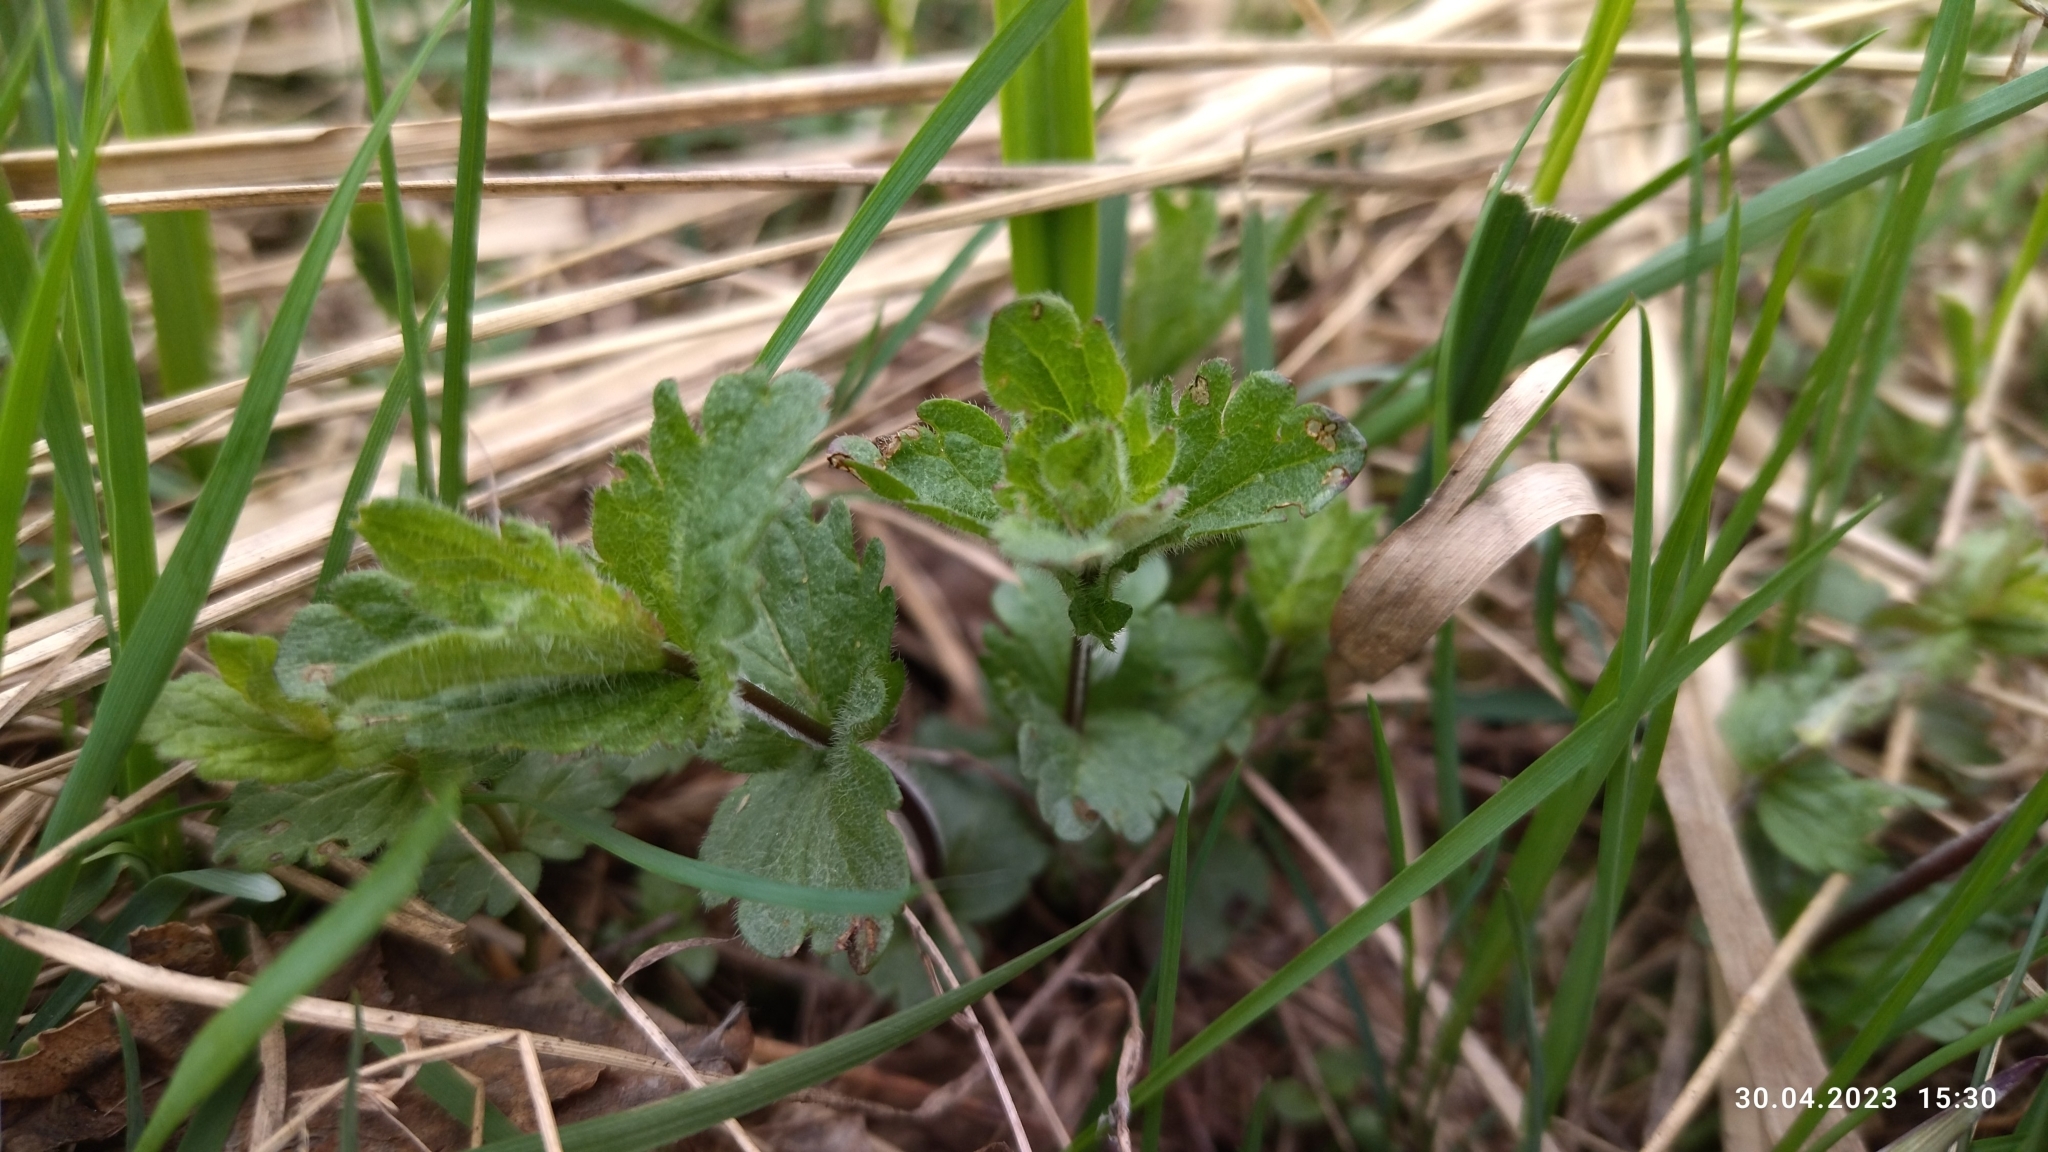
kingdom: Plantae
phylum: Tracheophyta
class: Magnoliopsida
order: Lamiales
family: Plantaginaceae
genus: Veronica
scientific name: Veronica chamaedrys
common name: Germander speedwell
